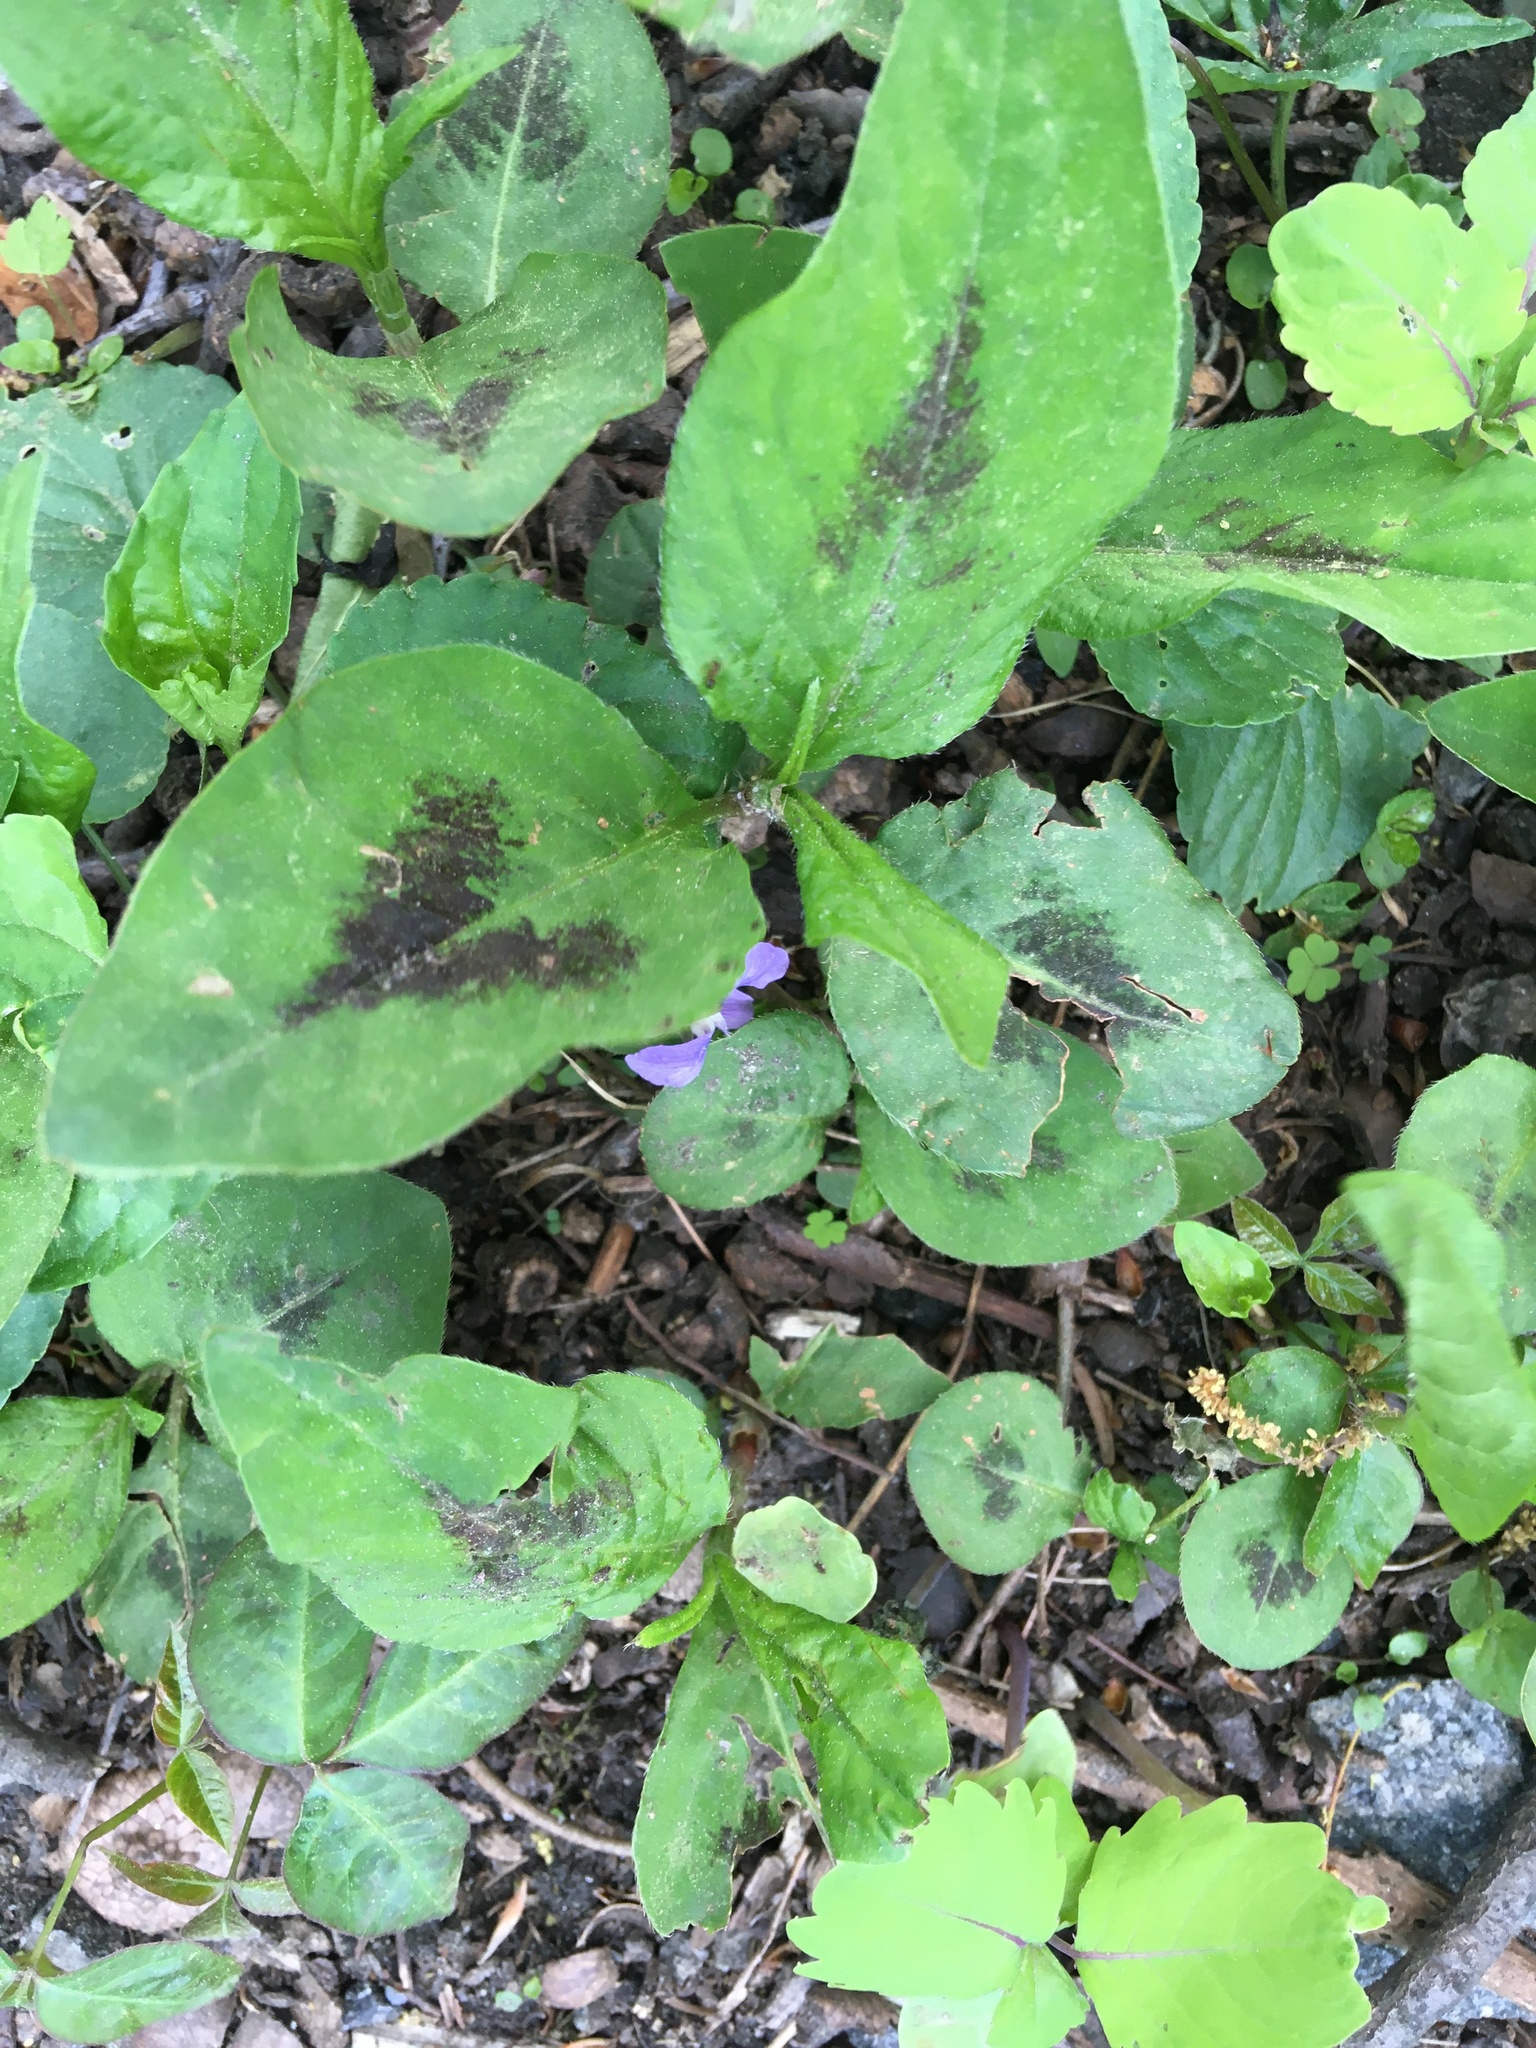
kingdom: Plantae
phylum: Tracheophyta
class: Magnoliopsida
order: Caryophyllales
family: Polygonaceae
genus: Persicaria
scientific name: Persicaria virginiana
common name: Jumpseed
